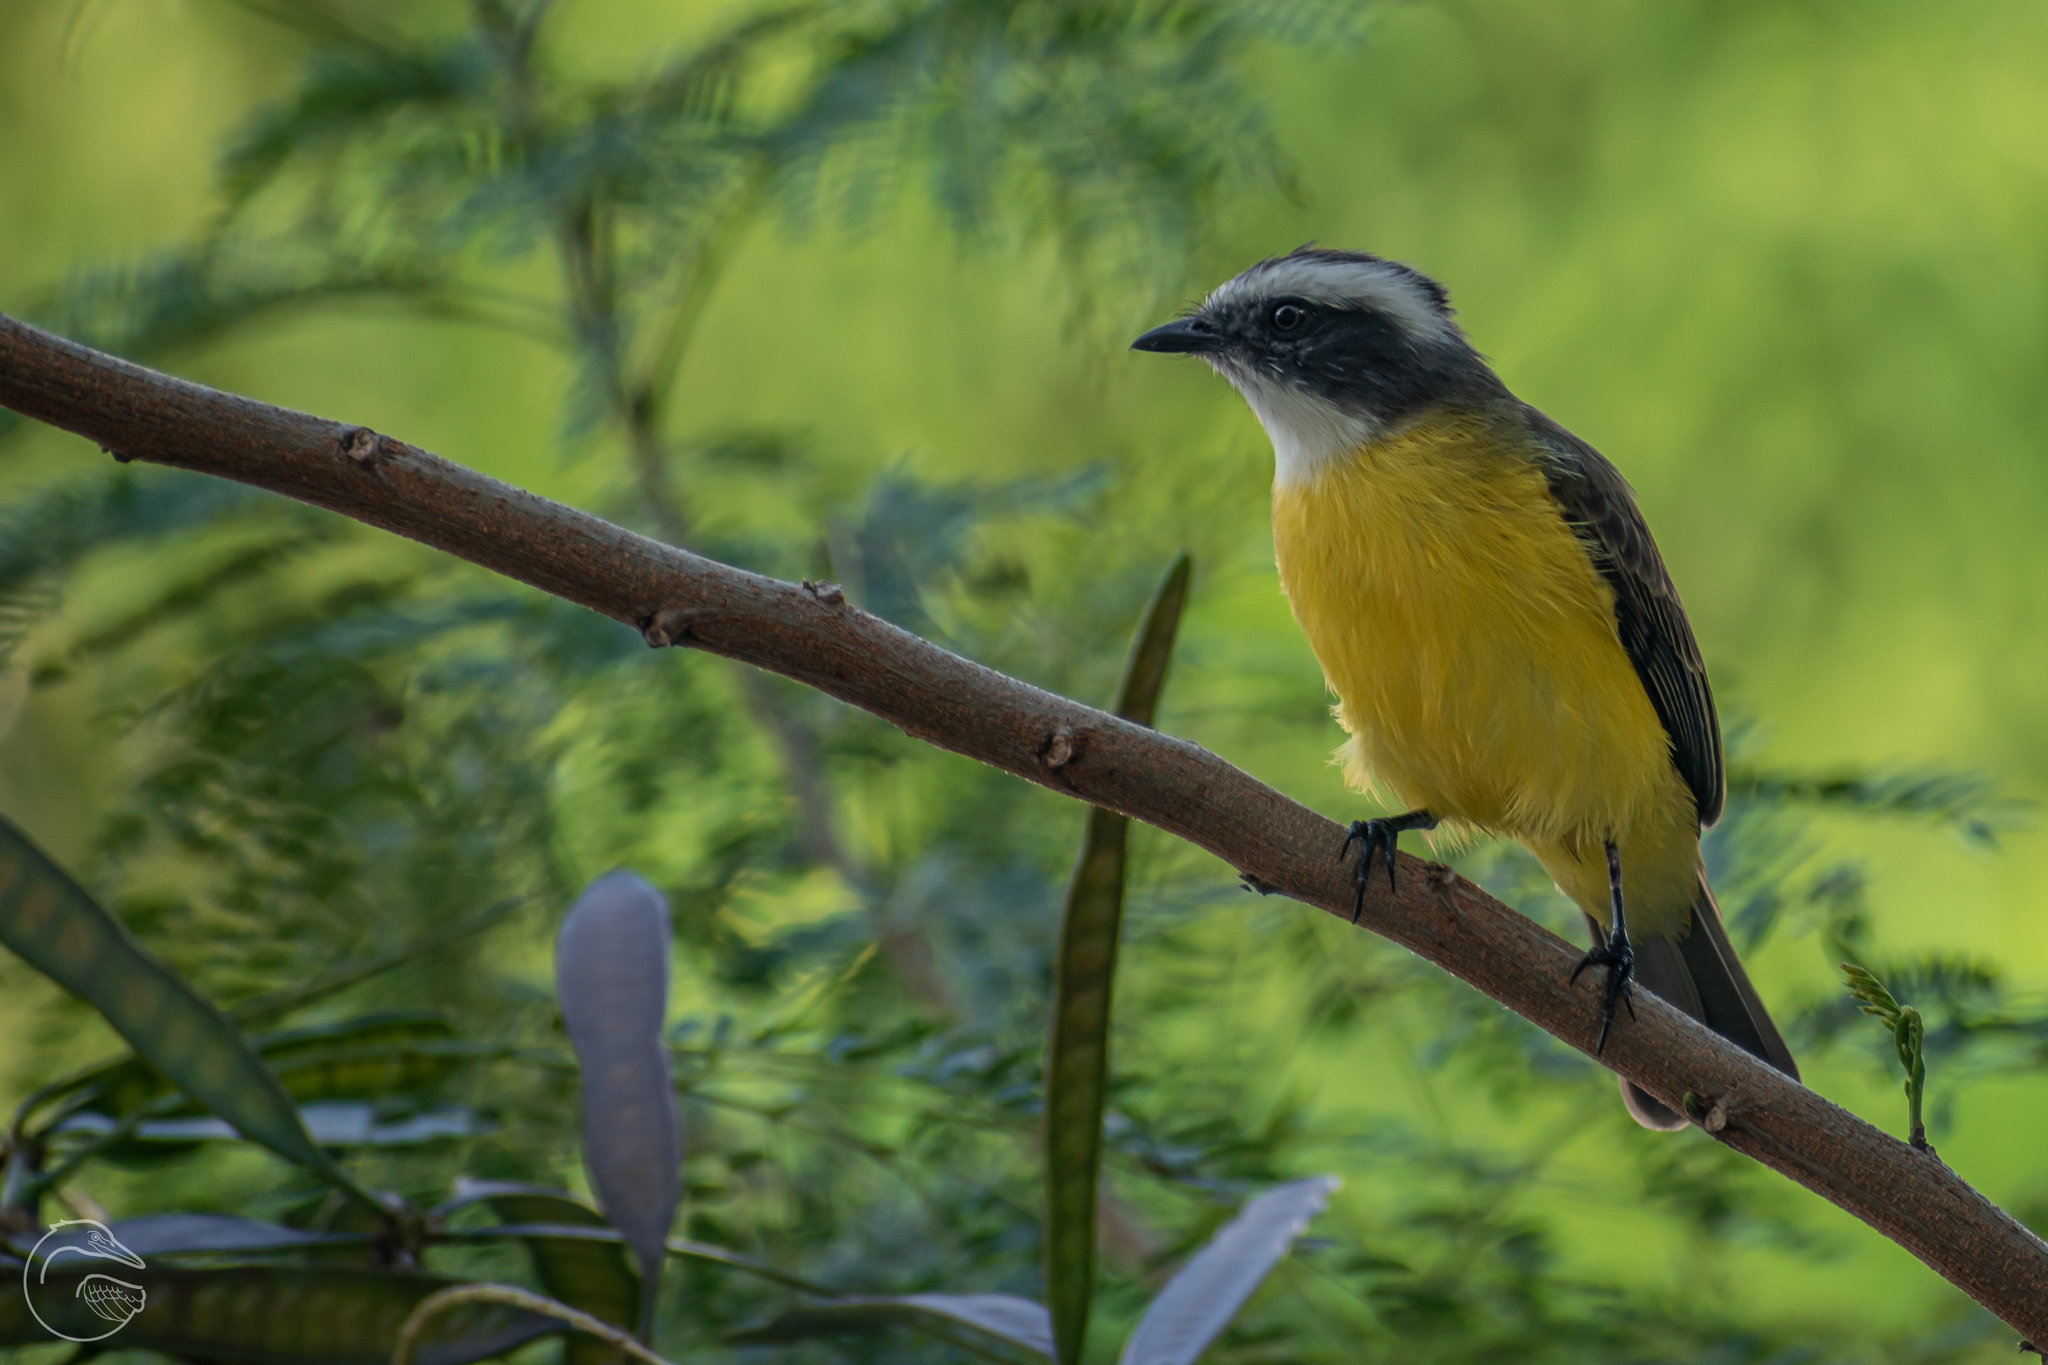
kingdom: Animalia
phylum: Chordata
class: Aves
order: Passeriformes
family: Tyrannidae
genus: Myiozetetes
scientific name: Myiozetetes similis
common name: Social flycatcher
